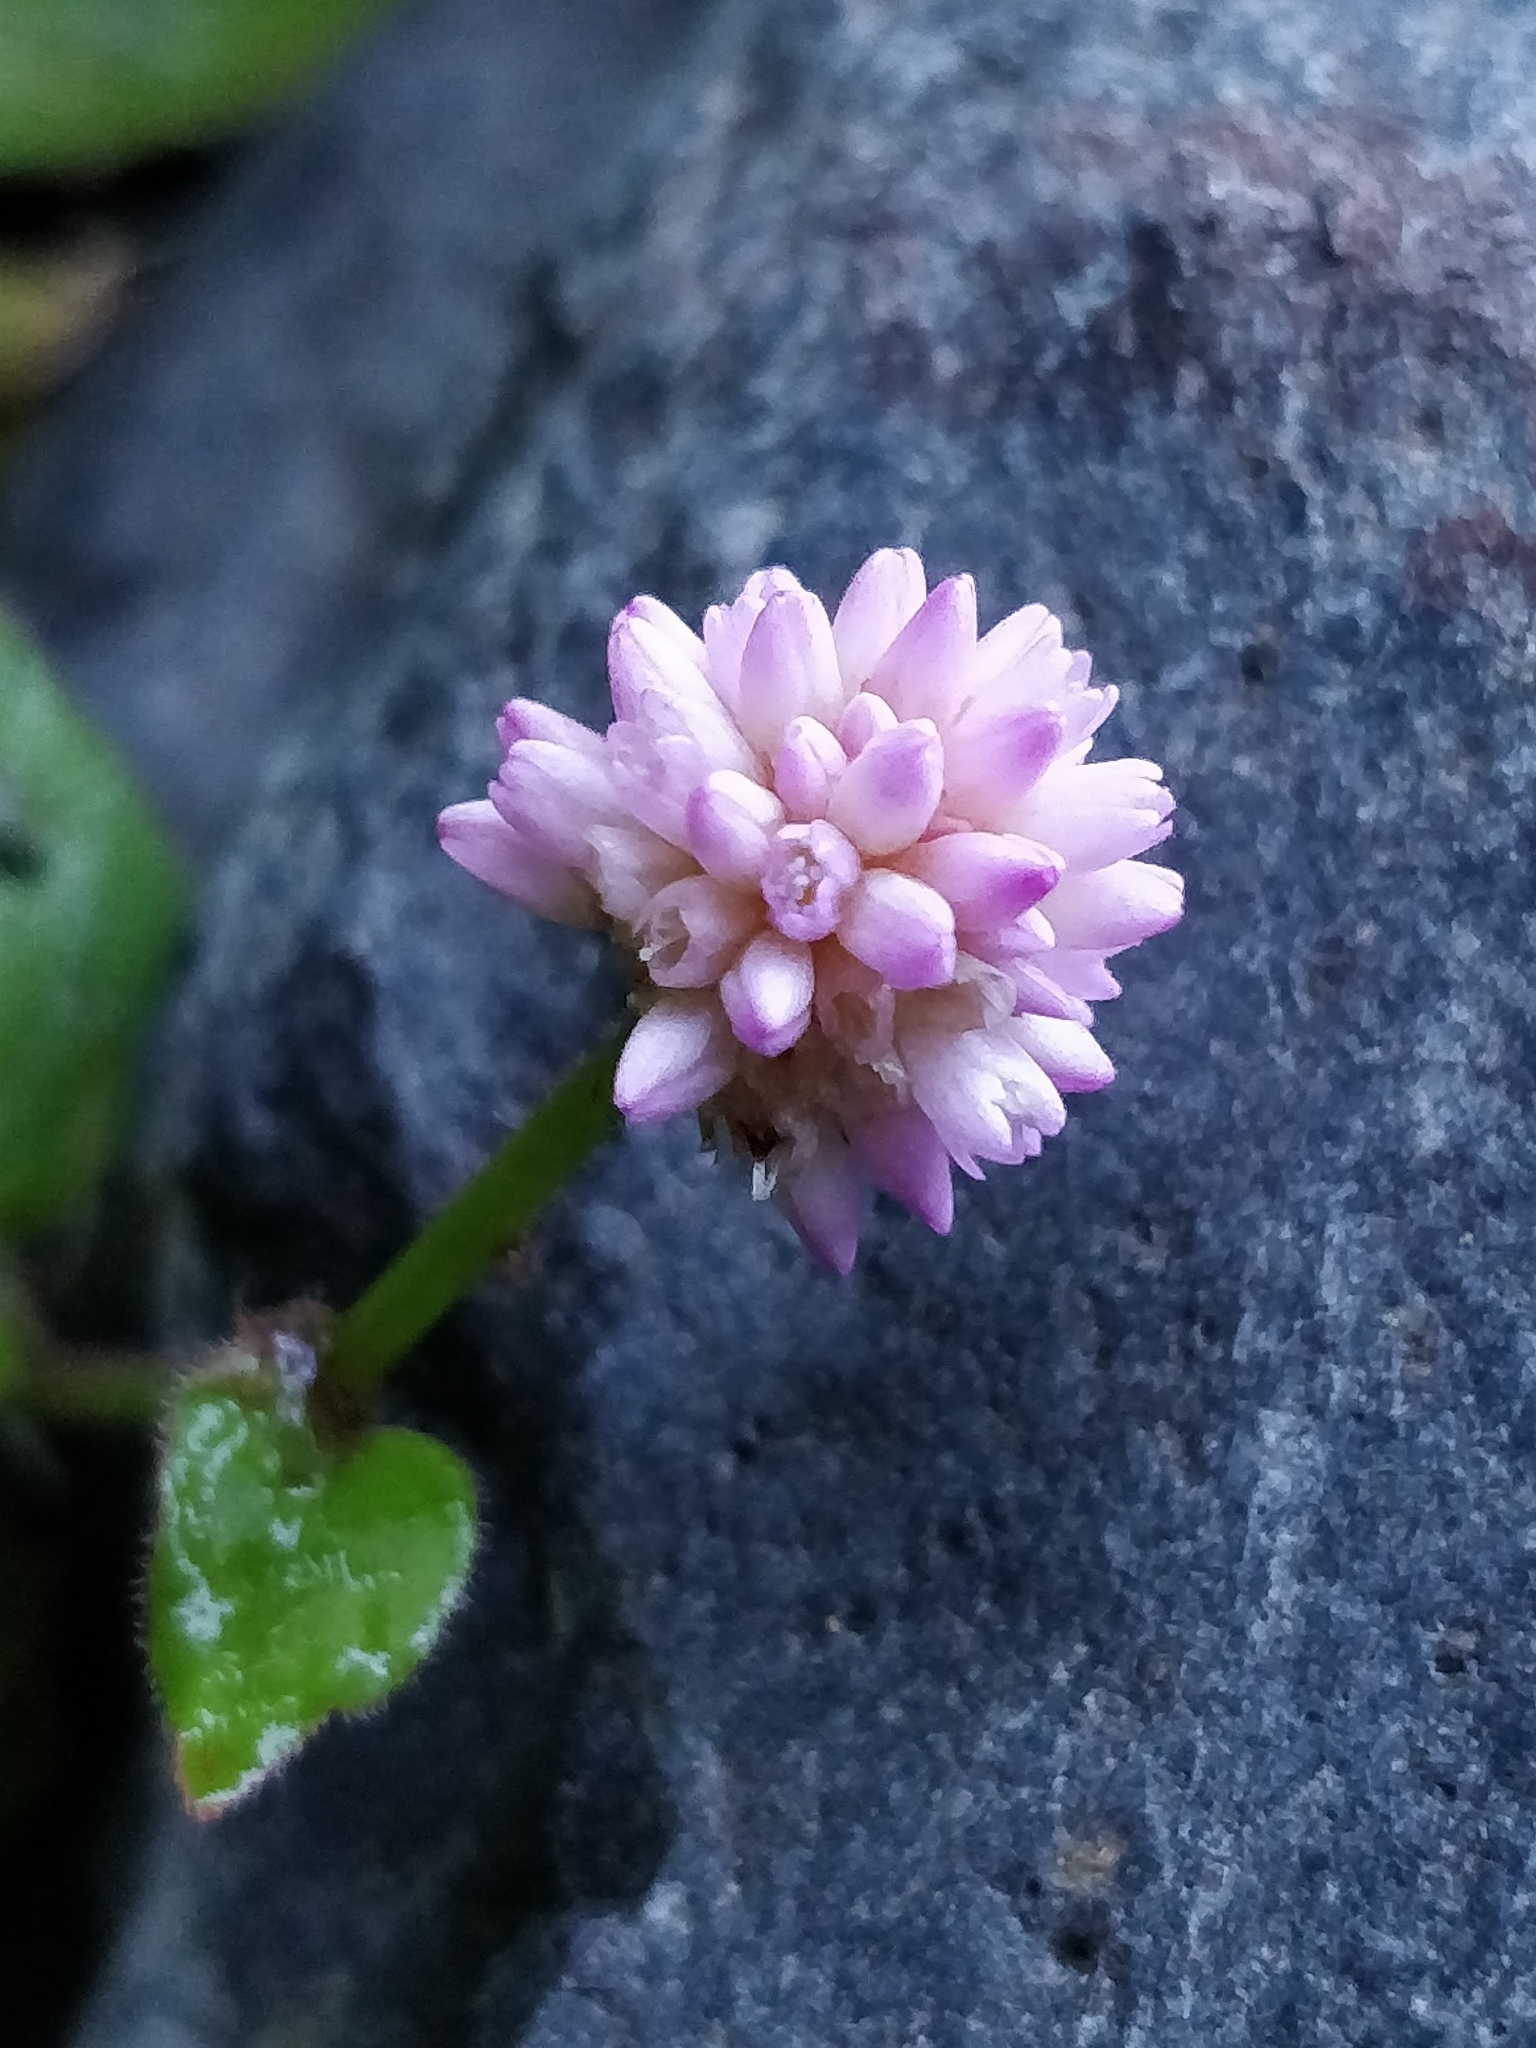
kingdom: Plantae
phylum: Tracheophyta
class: Magnoliopsida
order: Caryophyllales
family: Polygonaceae
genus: Persicaria
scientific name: Persicaria capitata
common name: Pinkhead smartweed
